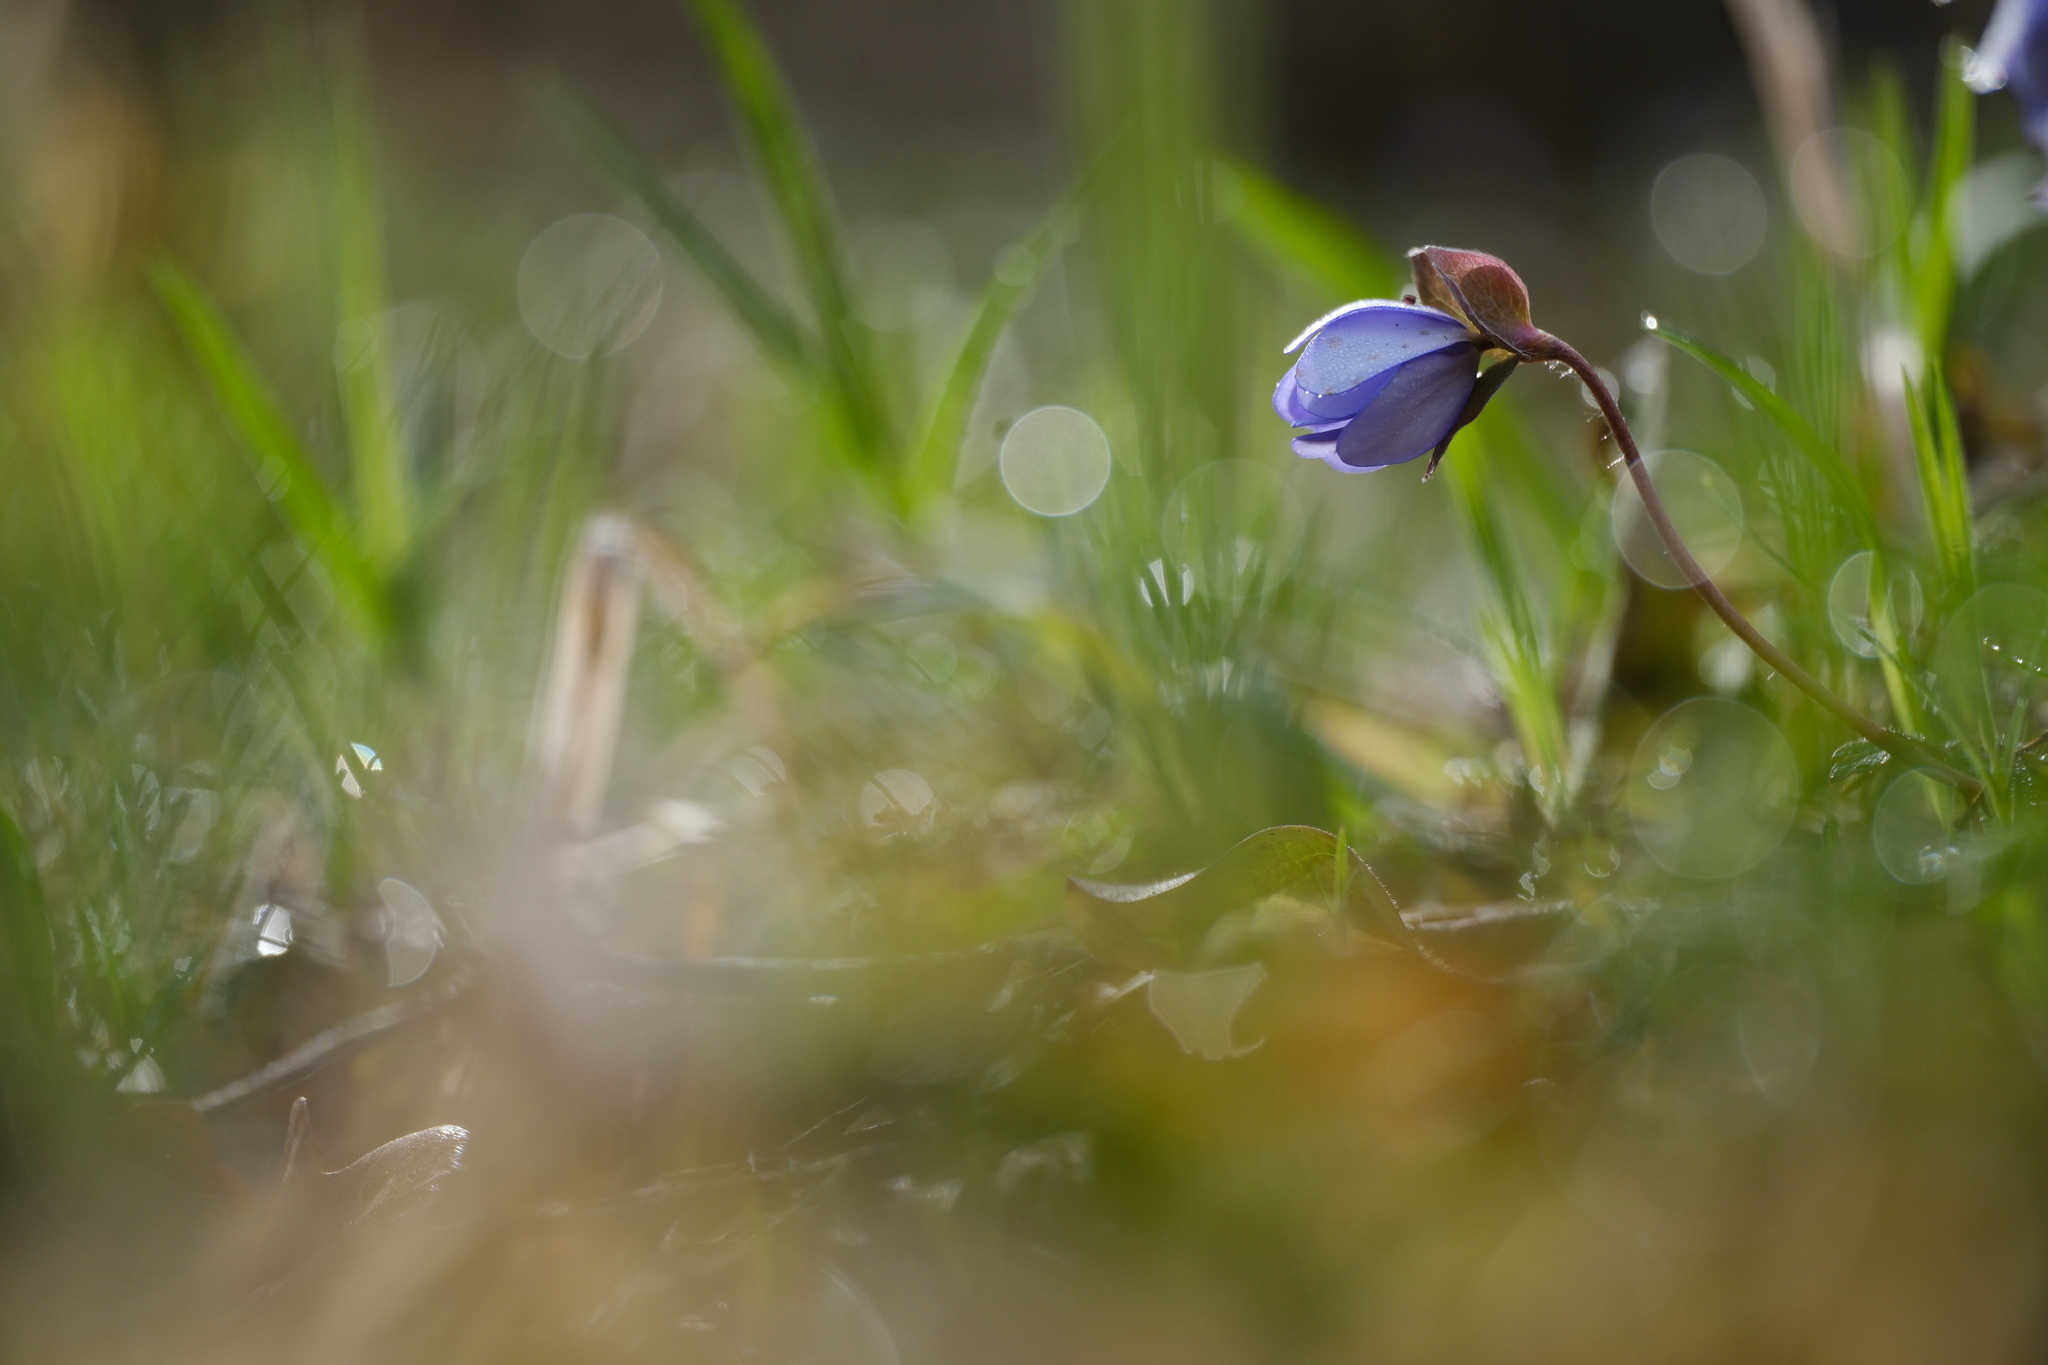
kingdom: Plantae
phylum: Tracheophyta
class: Magnoliopsida
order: Ranunculales
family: Ranunculaceae
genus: Hepatica
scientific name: Hepatica nobilis
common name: Liverleaf
